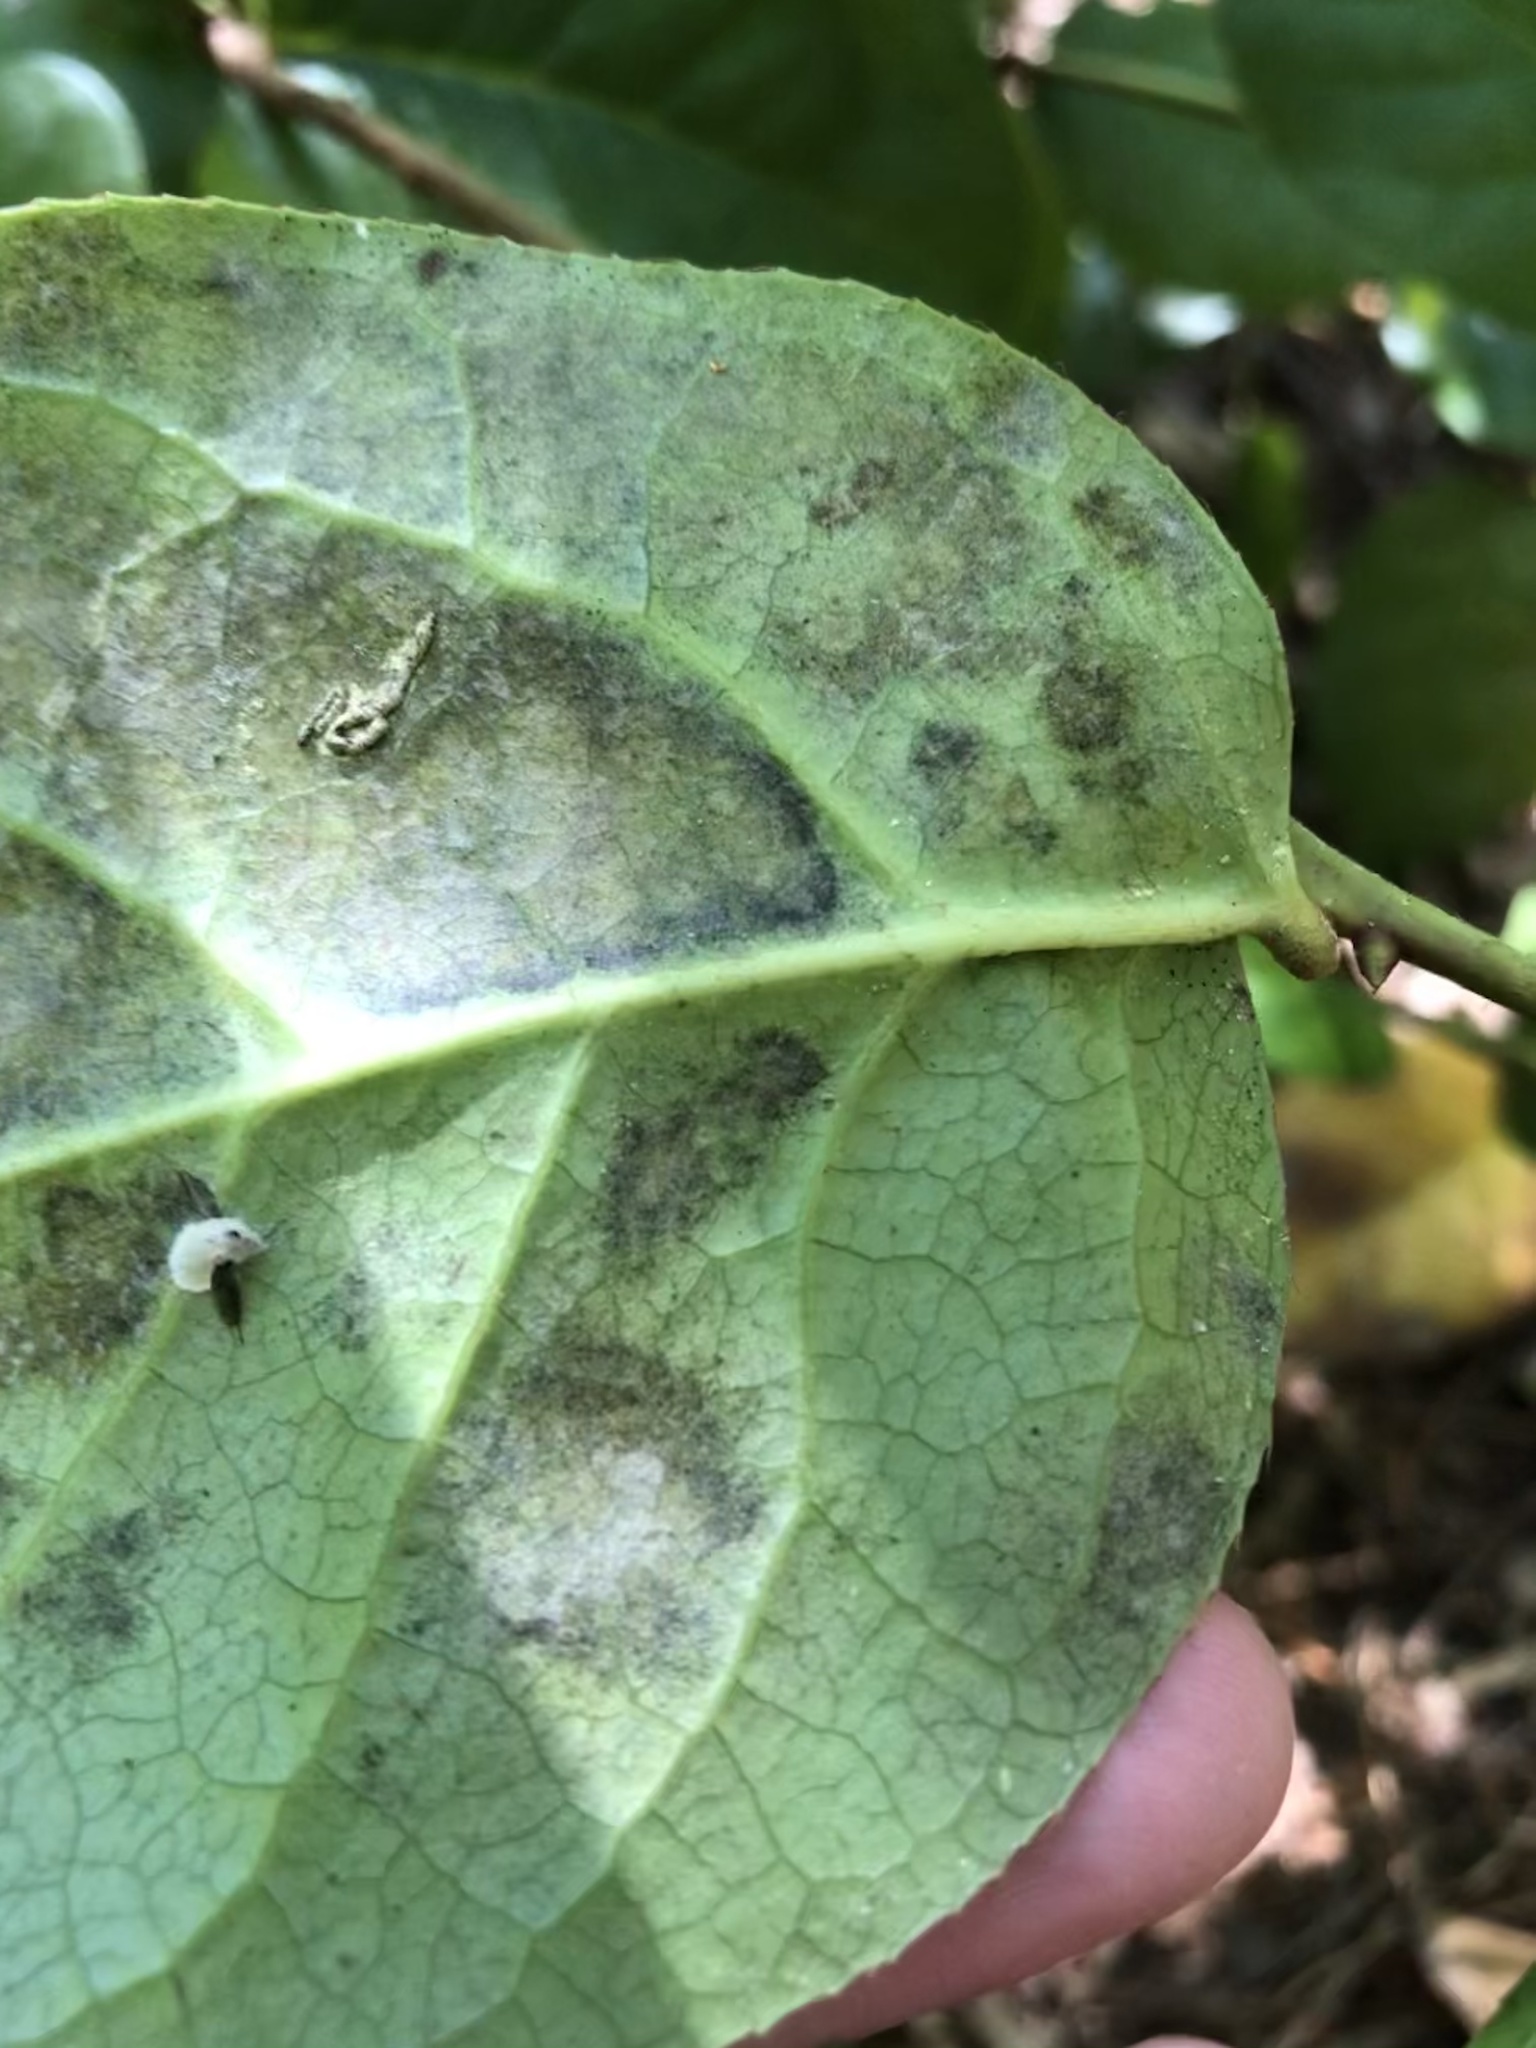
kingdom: Animalia
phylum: Arthropoda
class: Insecta
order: Lepidoptera
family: Gracillariidae
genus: Cameraria
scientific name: Cameraria gaultheriella
